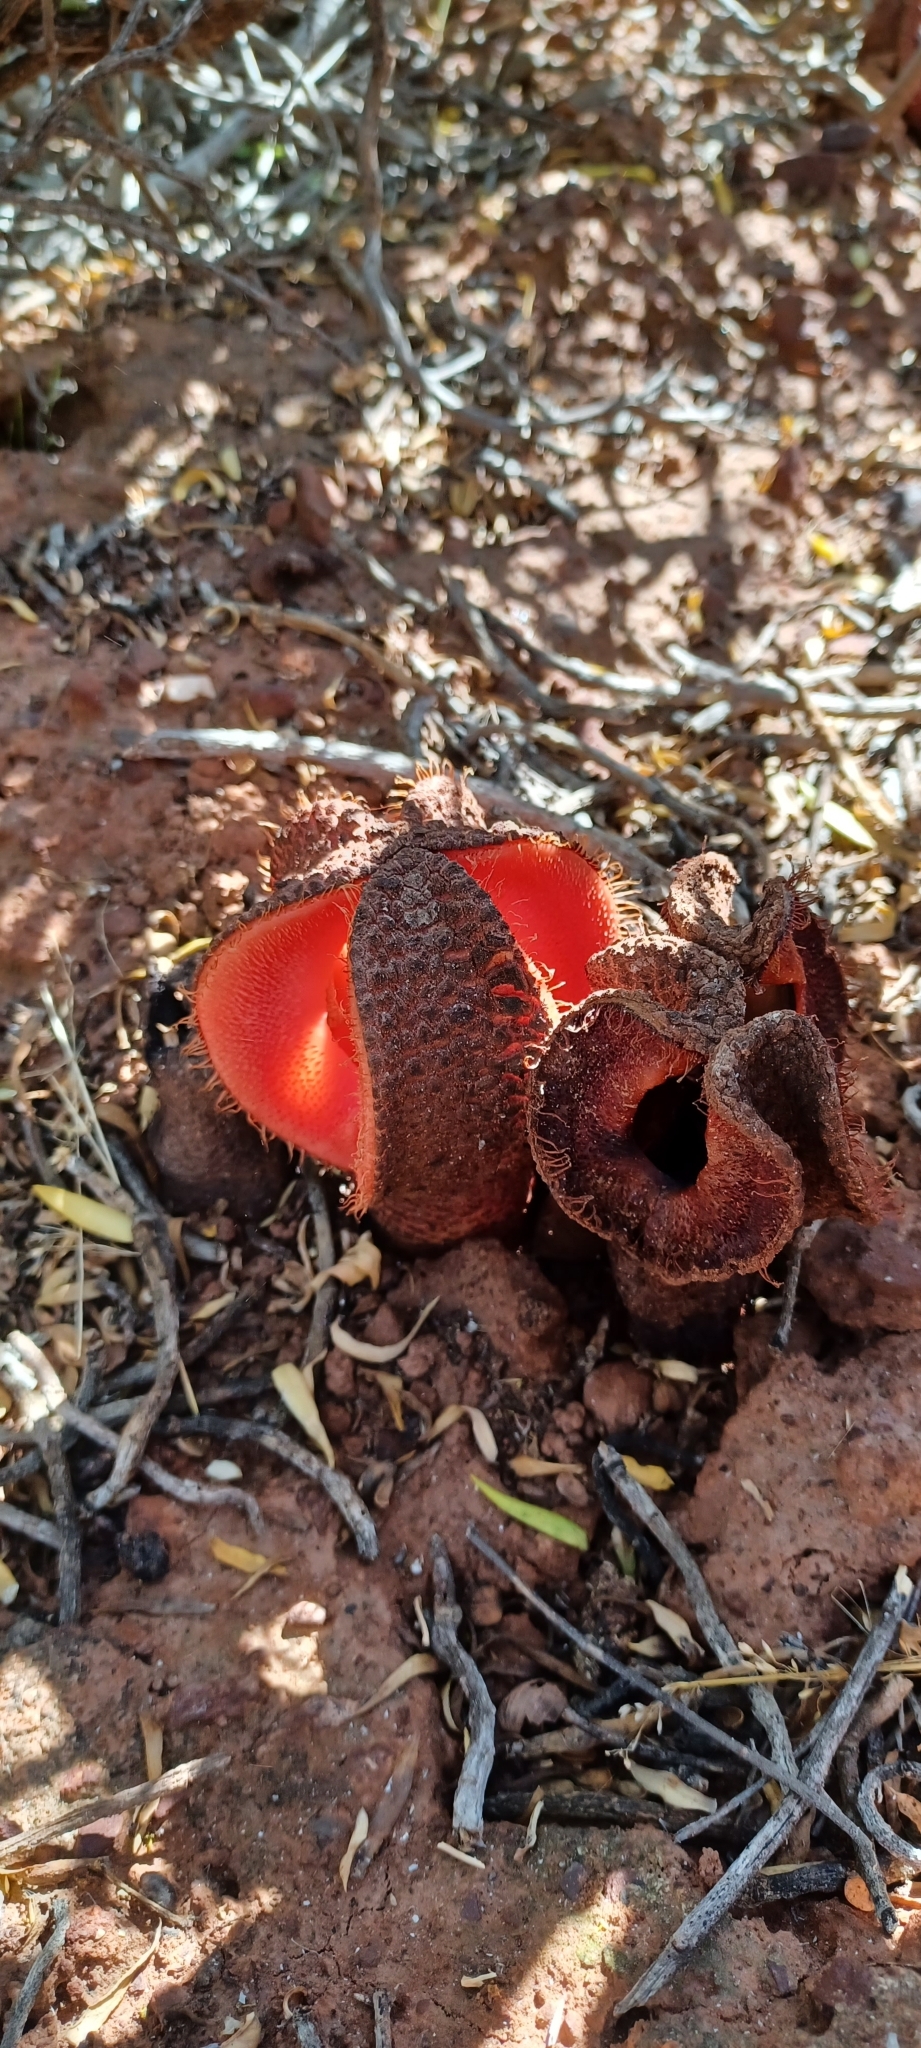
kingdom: Plantae
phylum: Tracheophyta
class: Magnoliopsida
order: Piperales
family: Hydnoraceae
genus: Hydnora
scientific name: Hydnora africana
